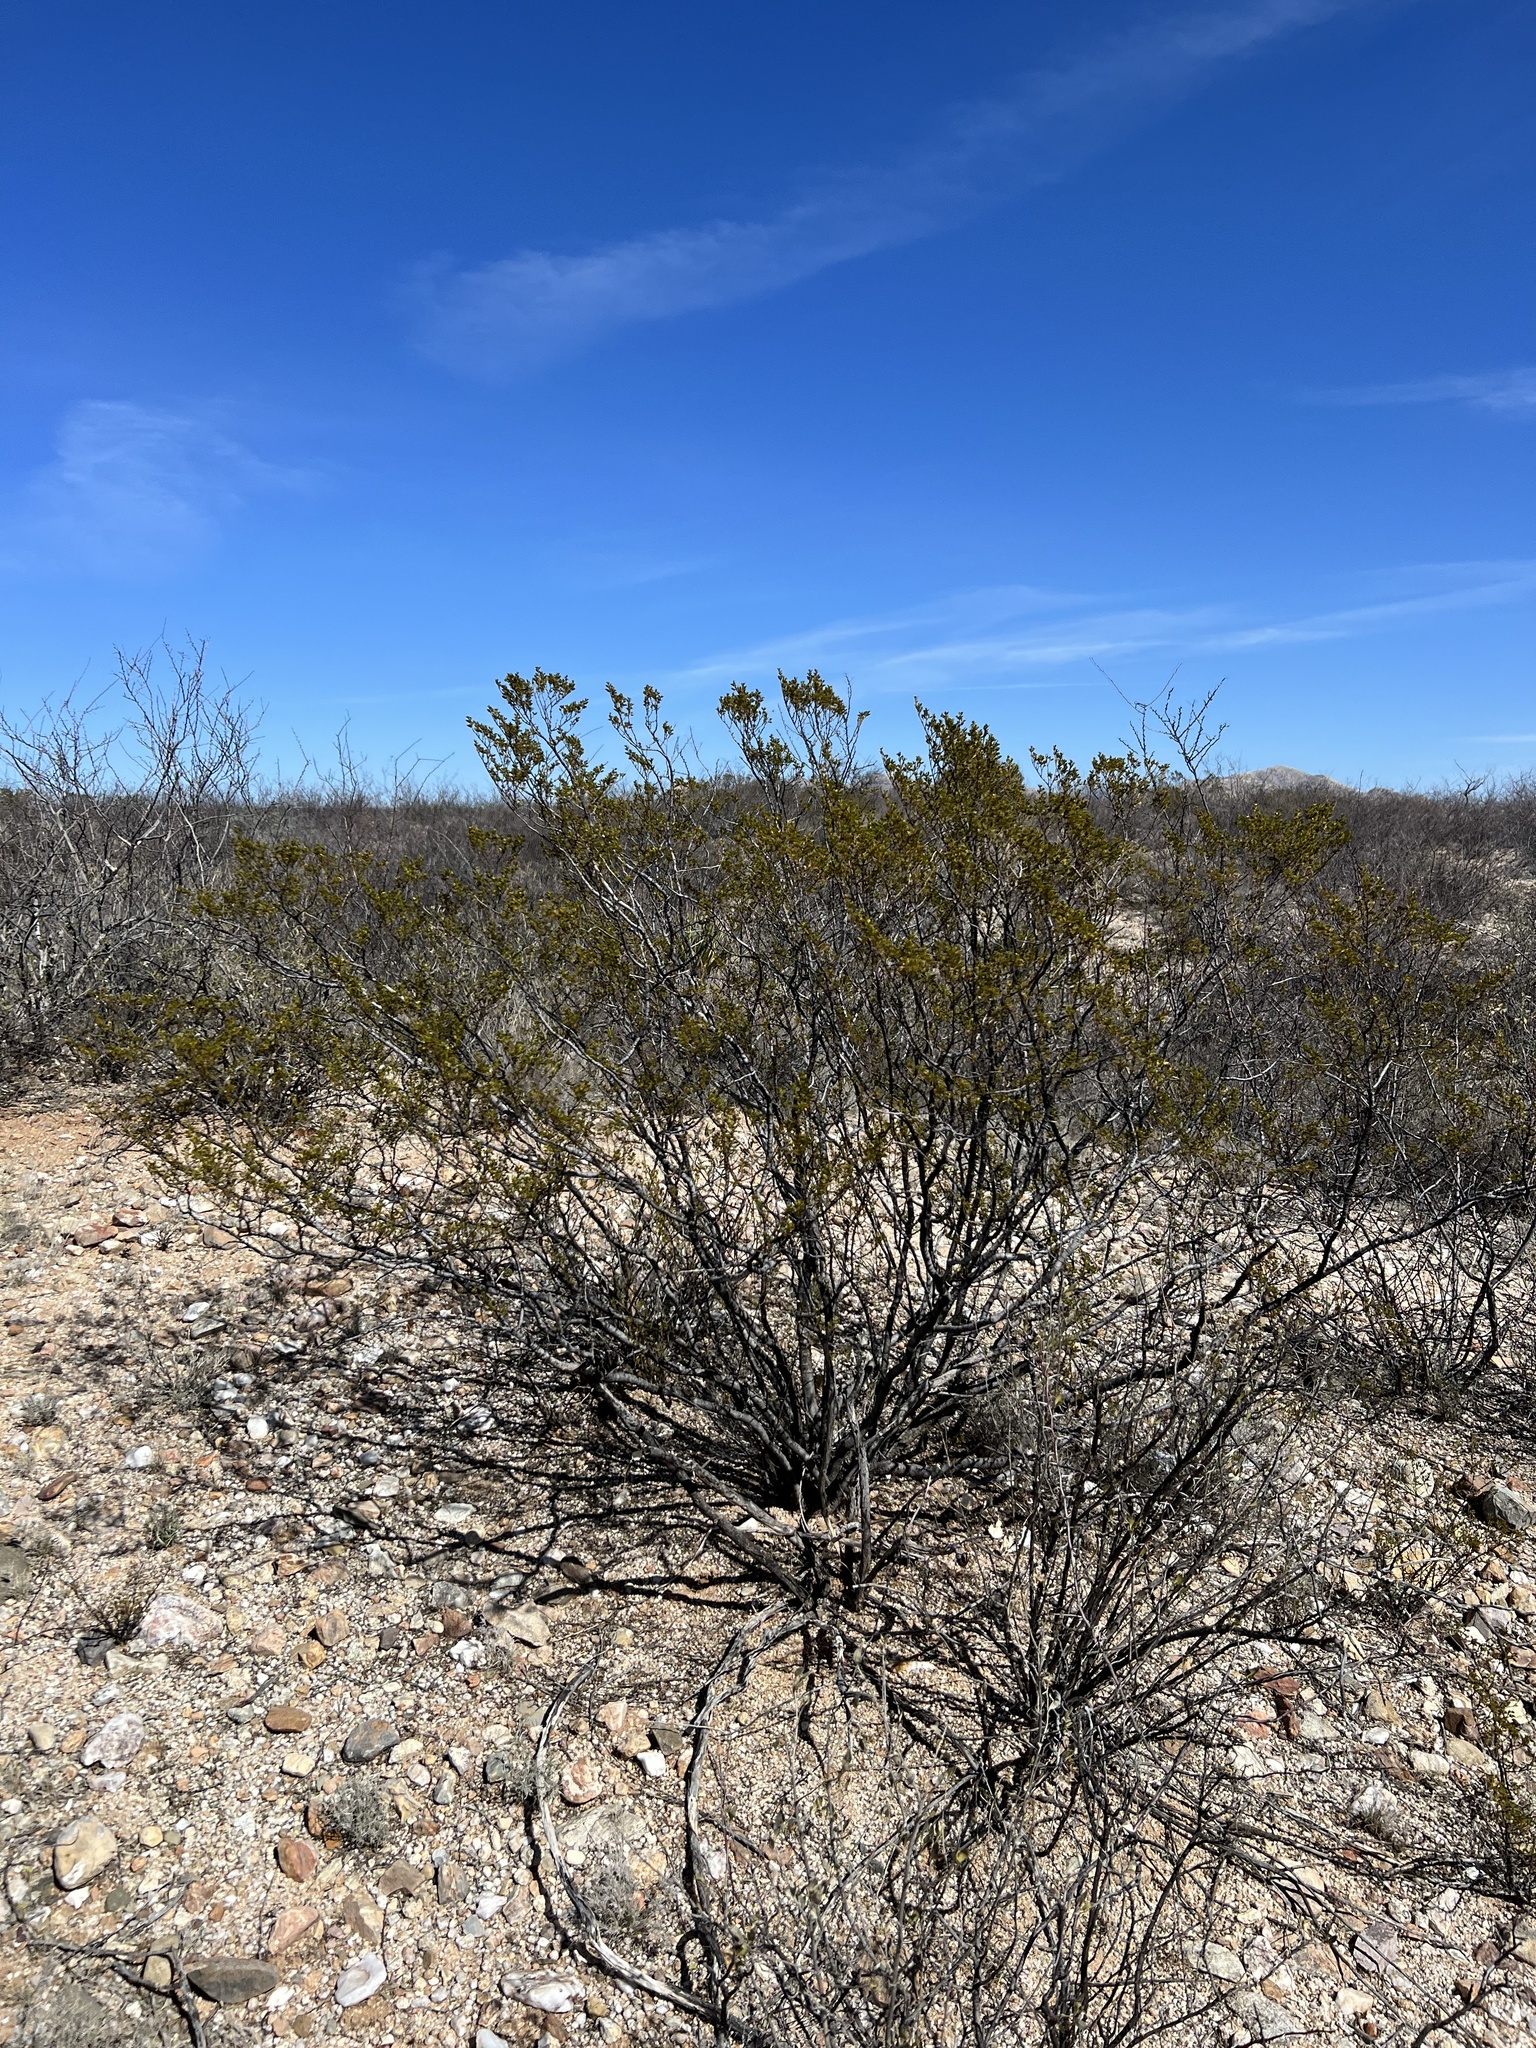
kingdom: Plantae
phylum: Tracheophyta
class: Magnoliopsida
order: Zygophyllales
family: Zygophyllaceae
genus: Larrea
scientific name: Larrea tridentata
